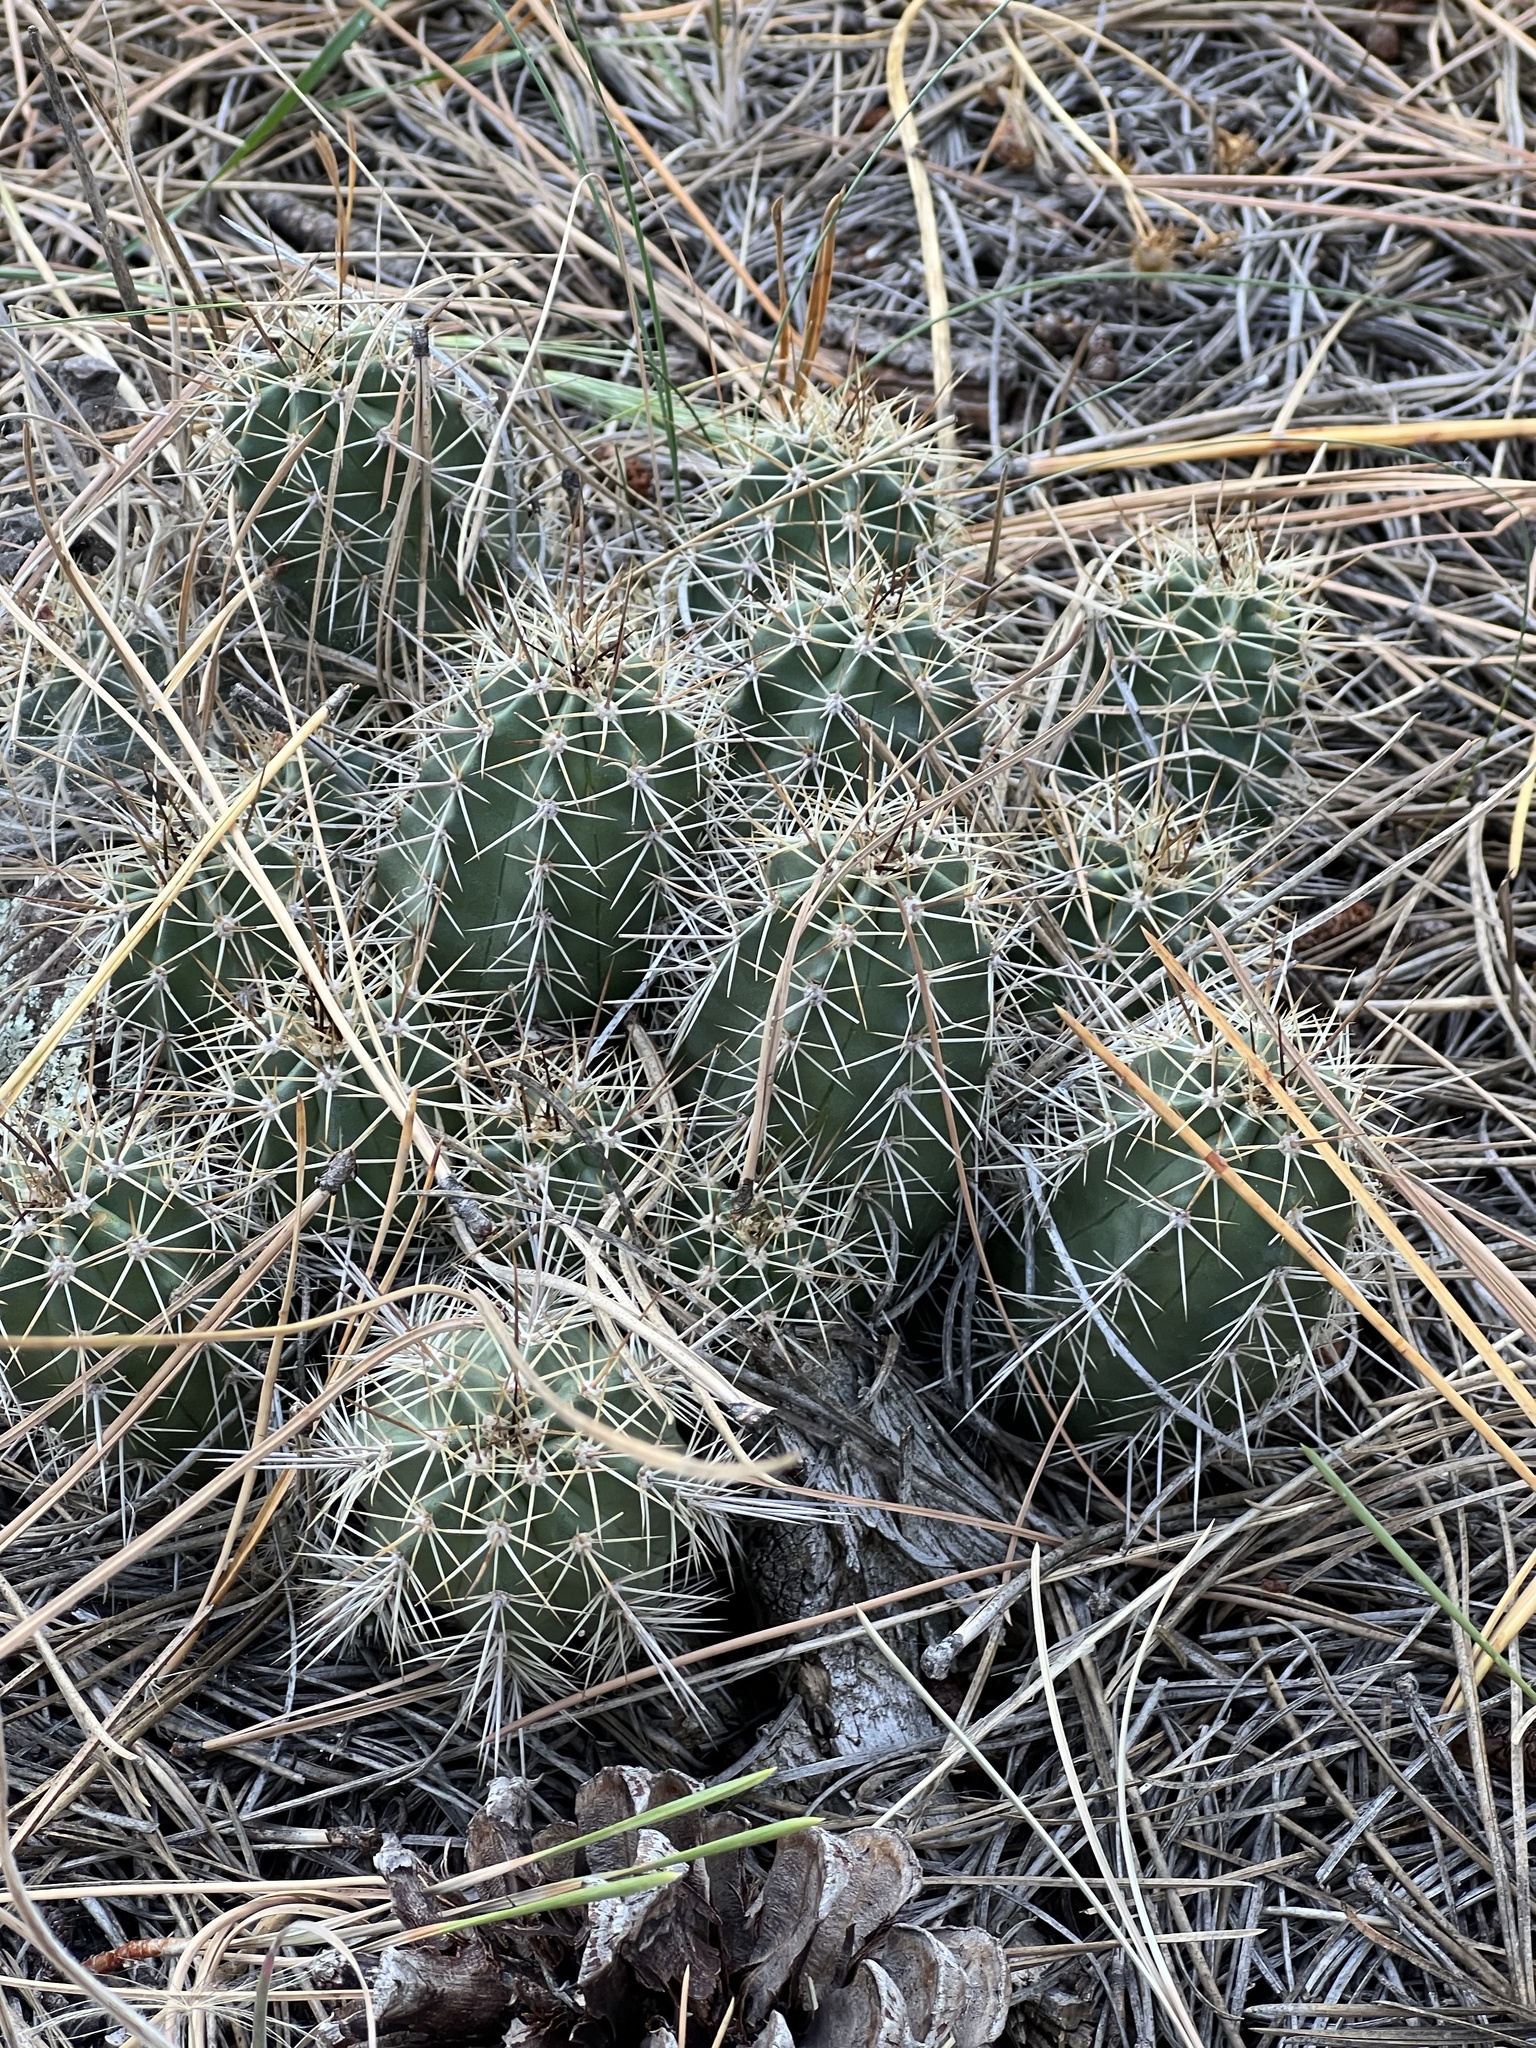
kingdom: Plantae
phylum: Tracheophyta
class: Magnoliopsida
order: Caryophyllales
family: Cactaceae
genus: Echinocereus
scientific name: Echinocereus bakeri
